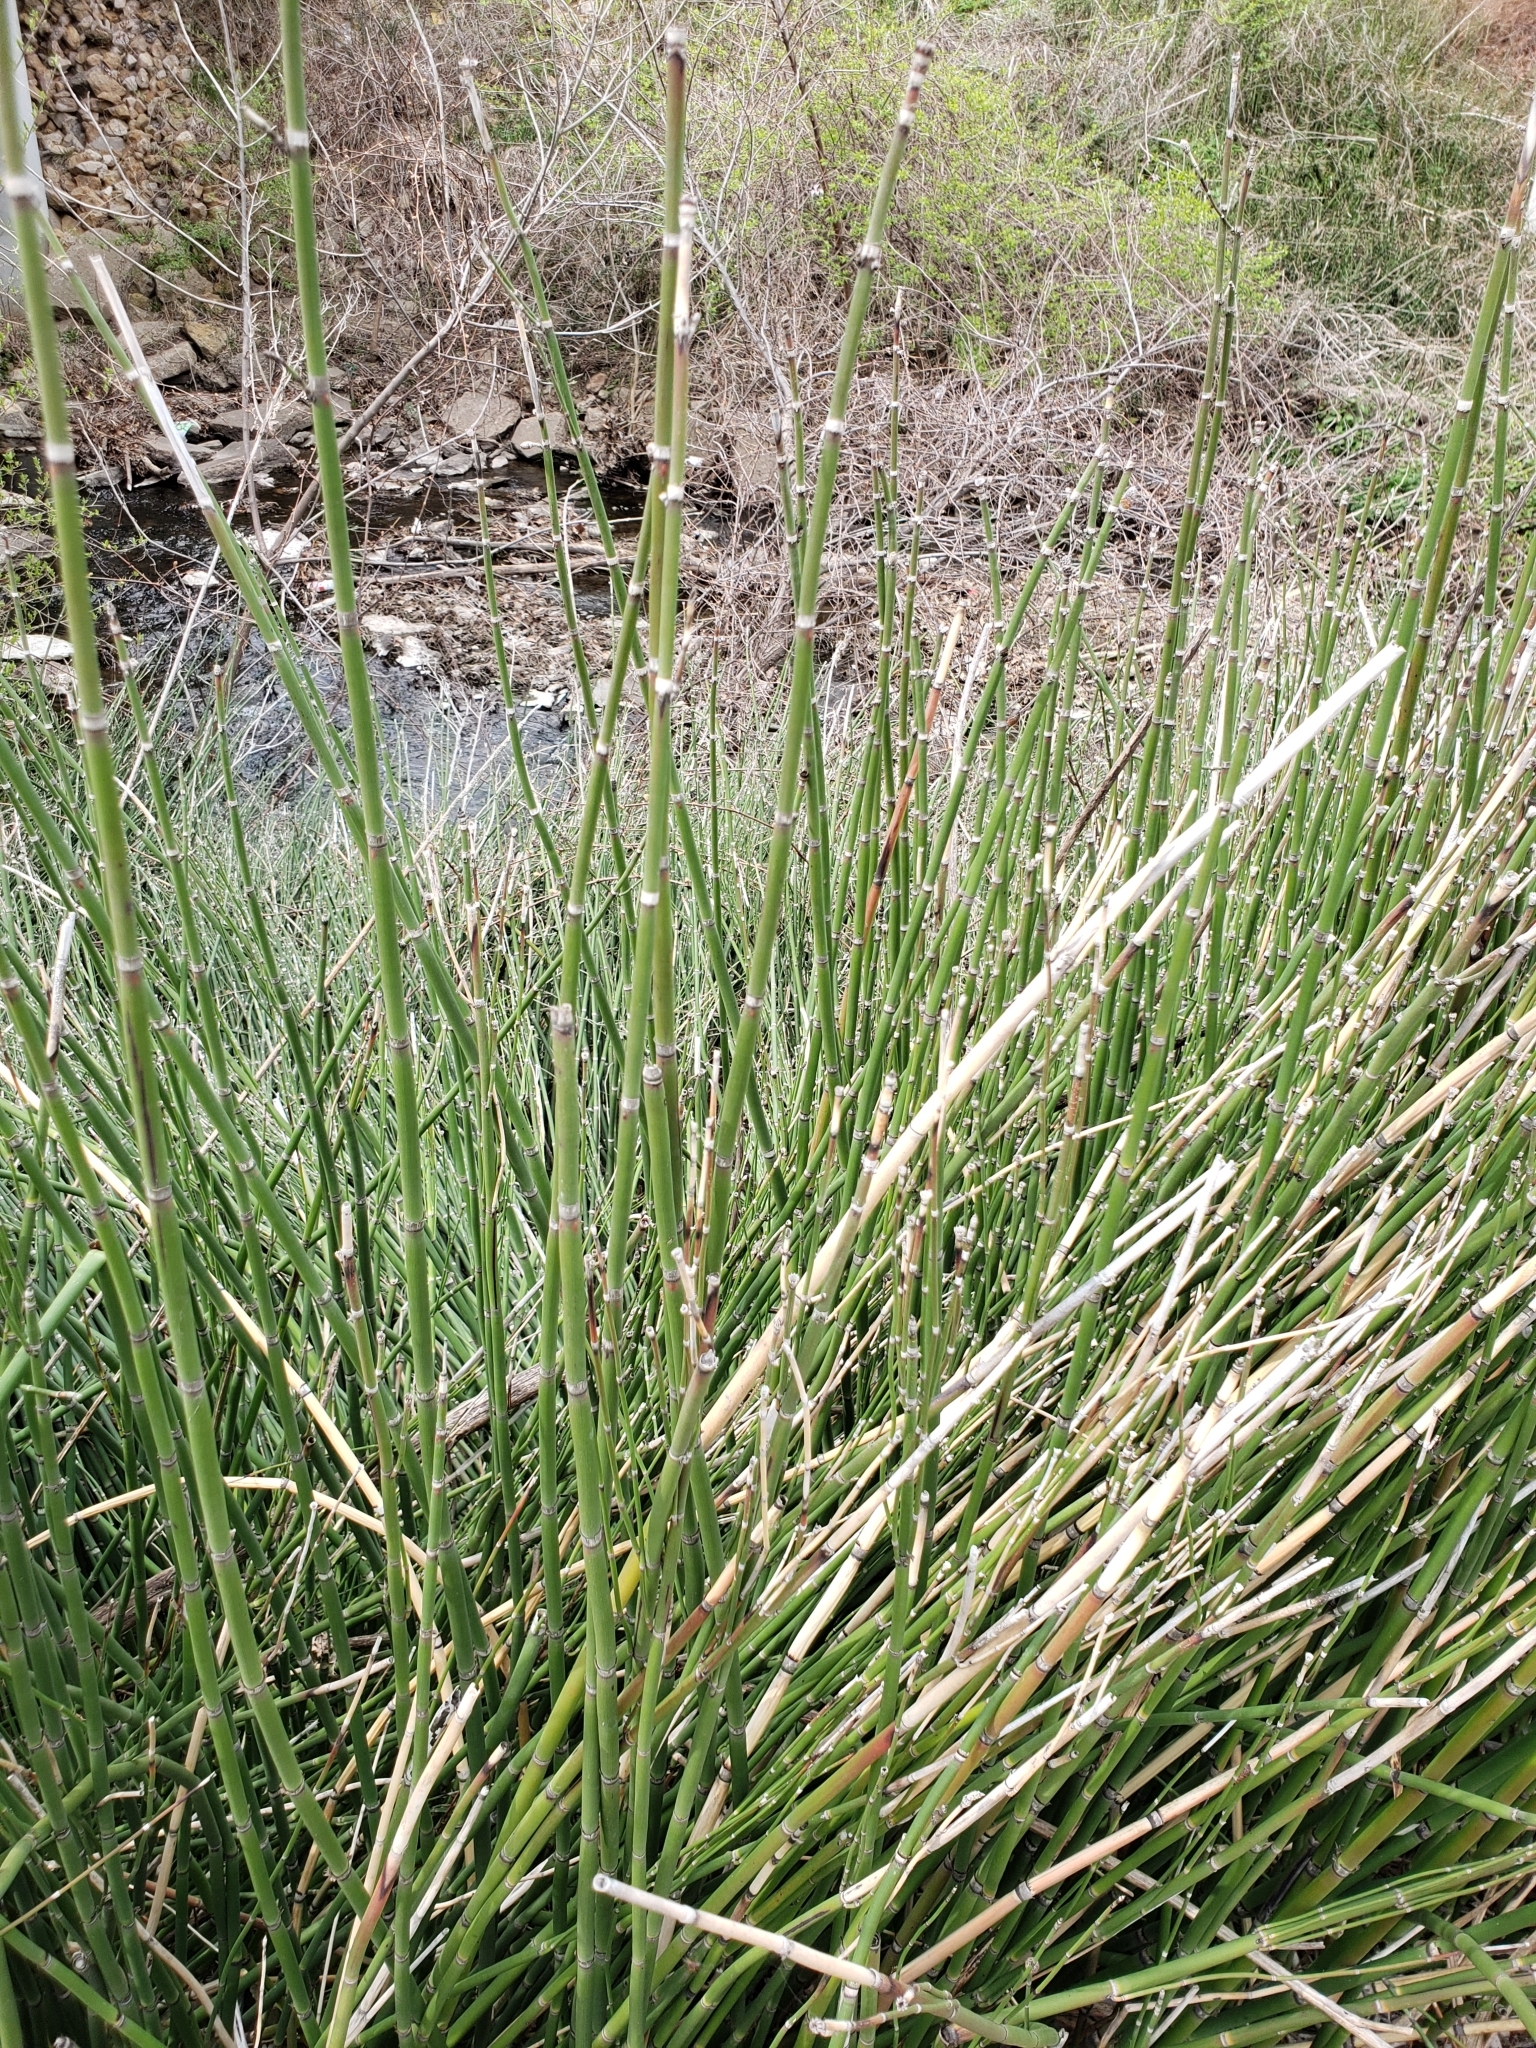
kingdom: Plantae
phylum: Tracheophyta
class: Polypodiopsida
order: Equisetales
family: Equisetaceae
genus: Equisetum
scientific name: Equisetum praealtum
